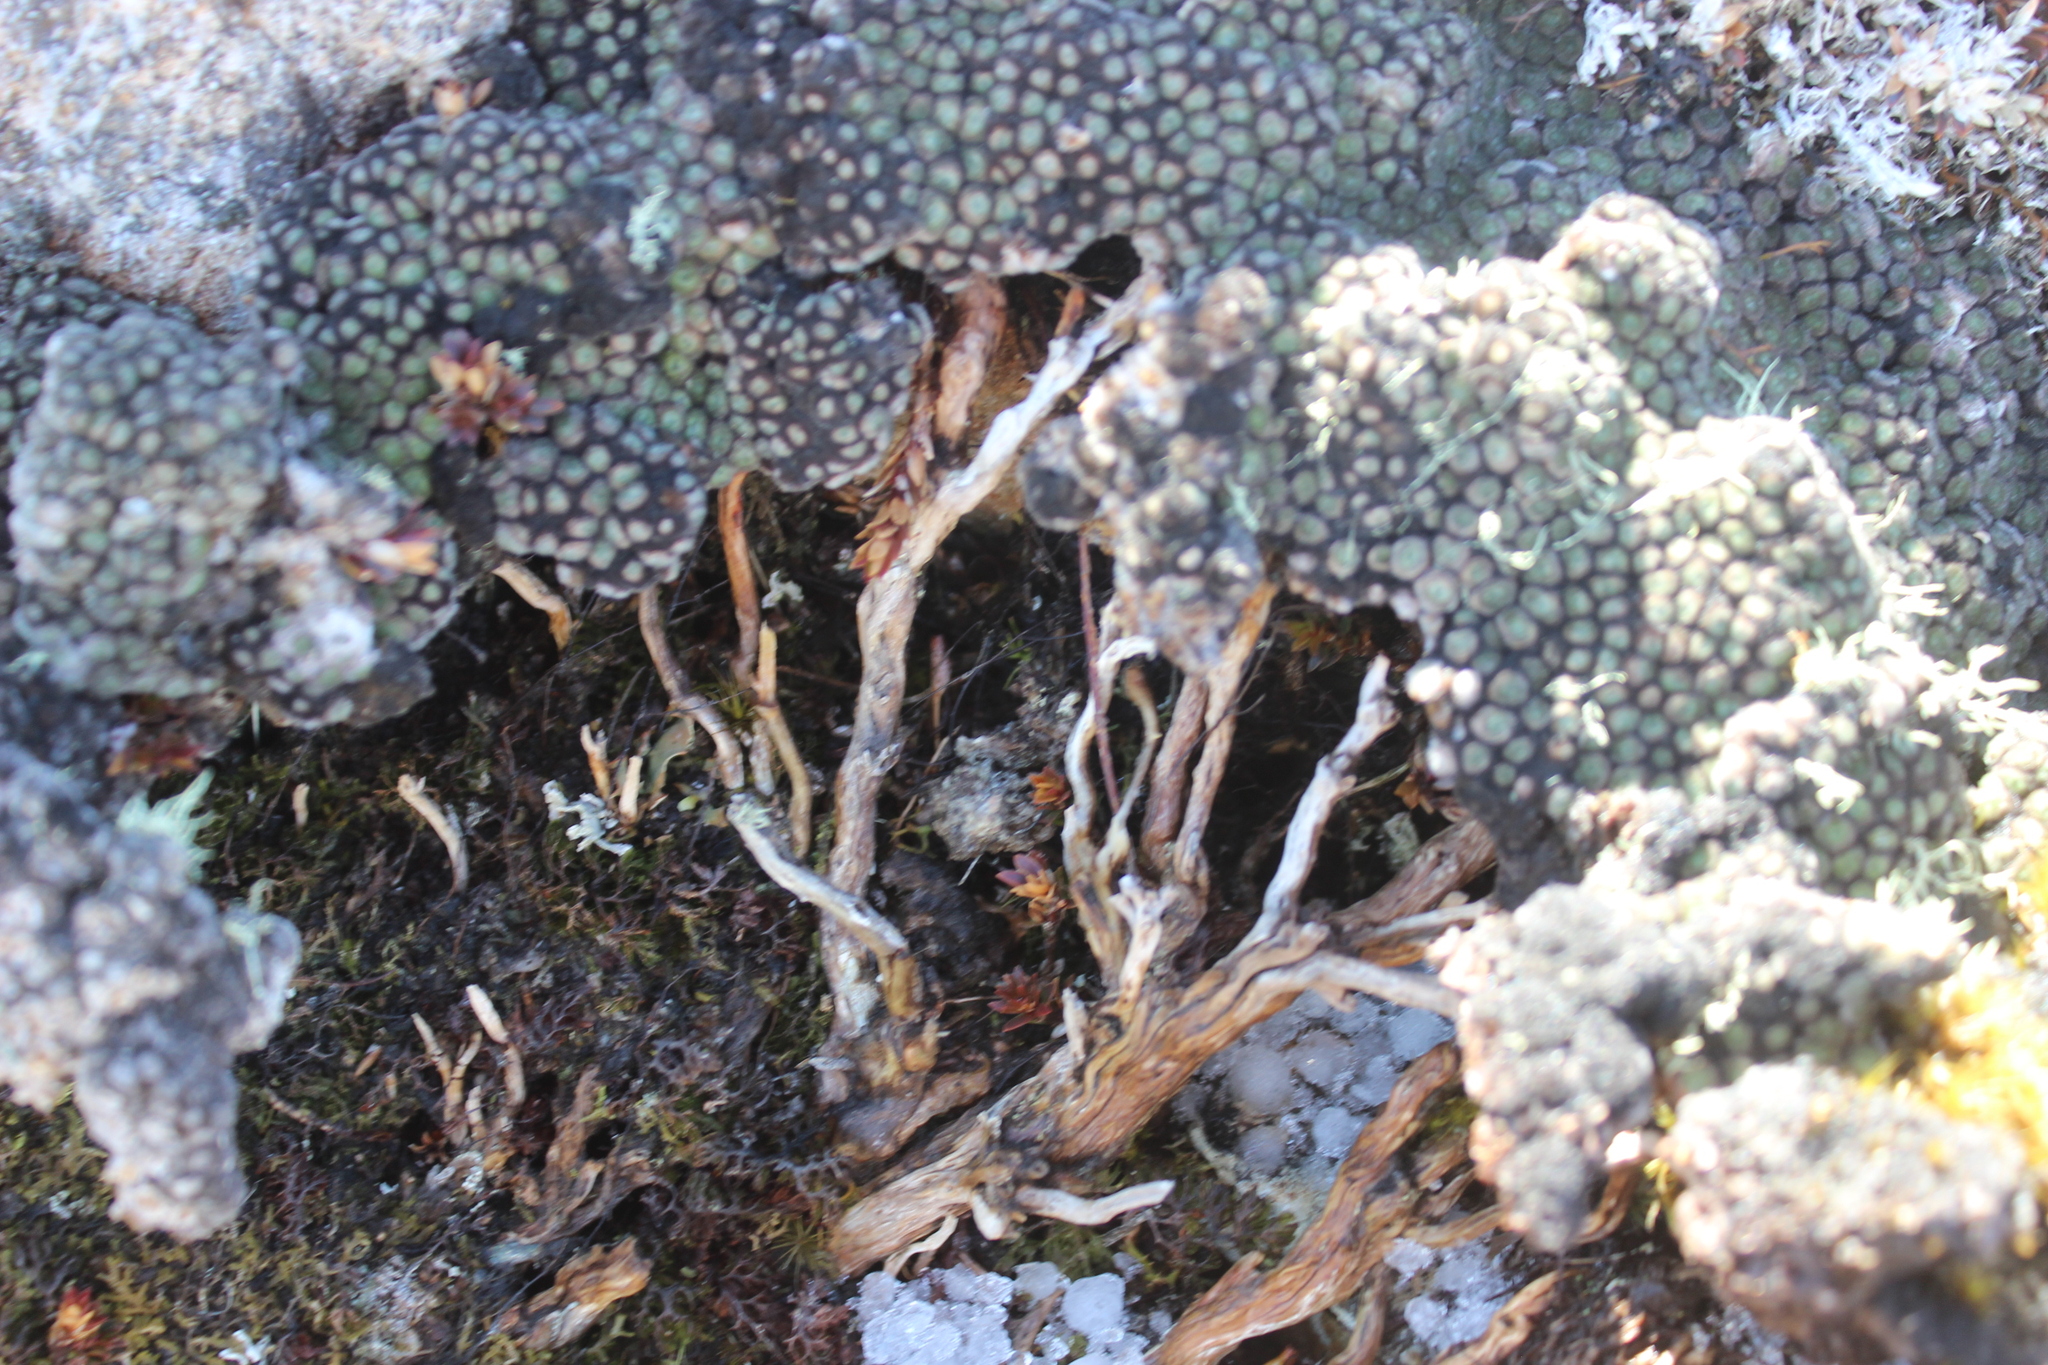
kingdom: Plantae
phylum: Tracheophyta
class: Magnoliopsida
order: Asterales
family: Asteraceae
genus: Raoulia
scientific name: Raoulia rubra
